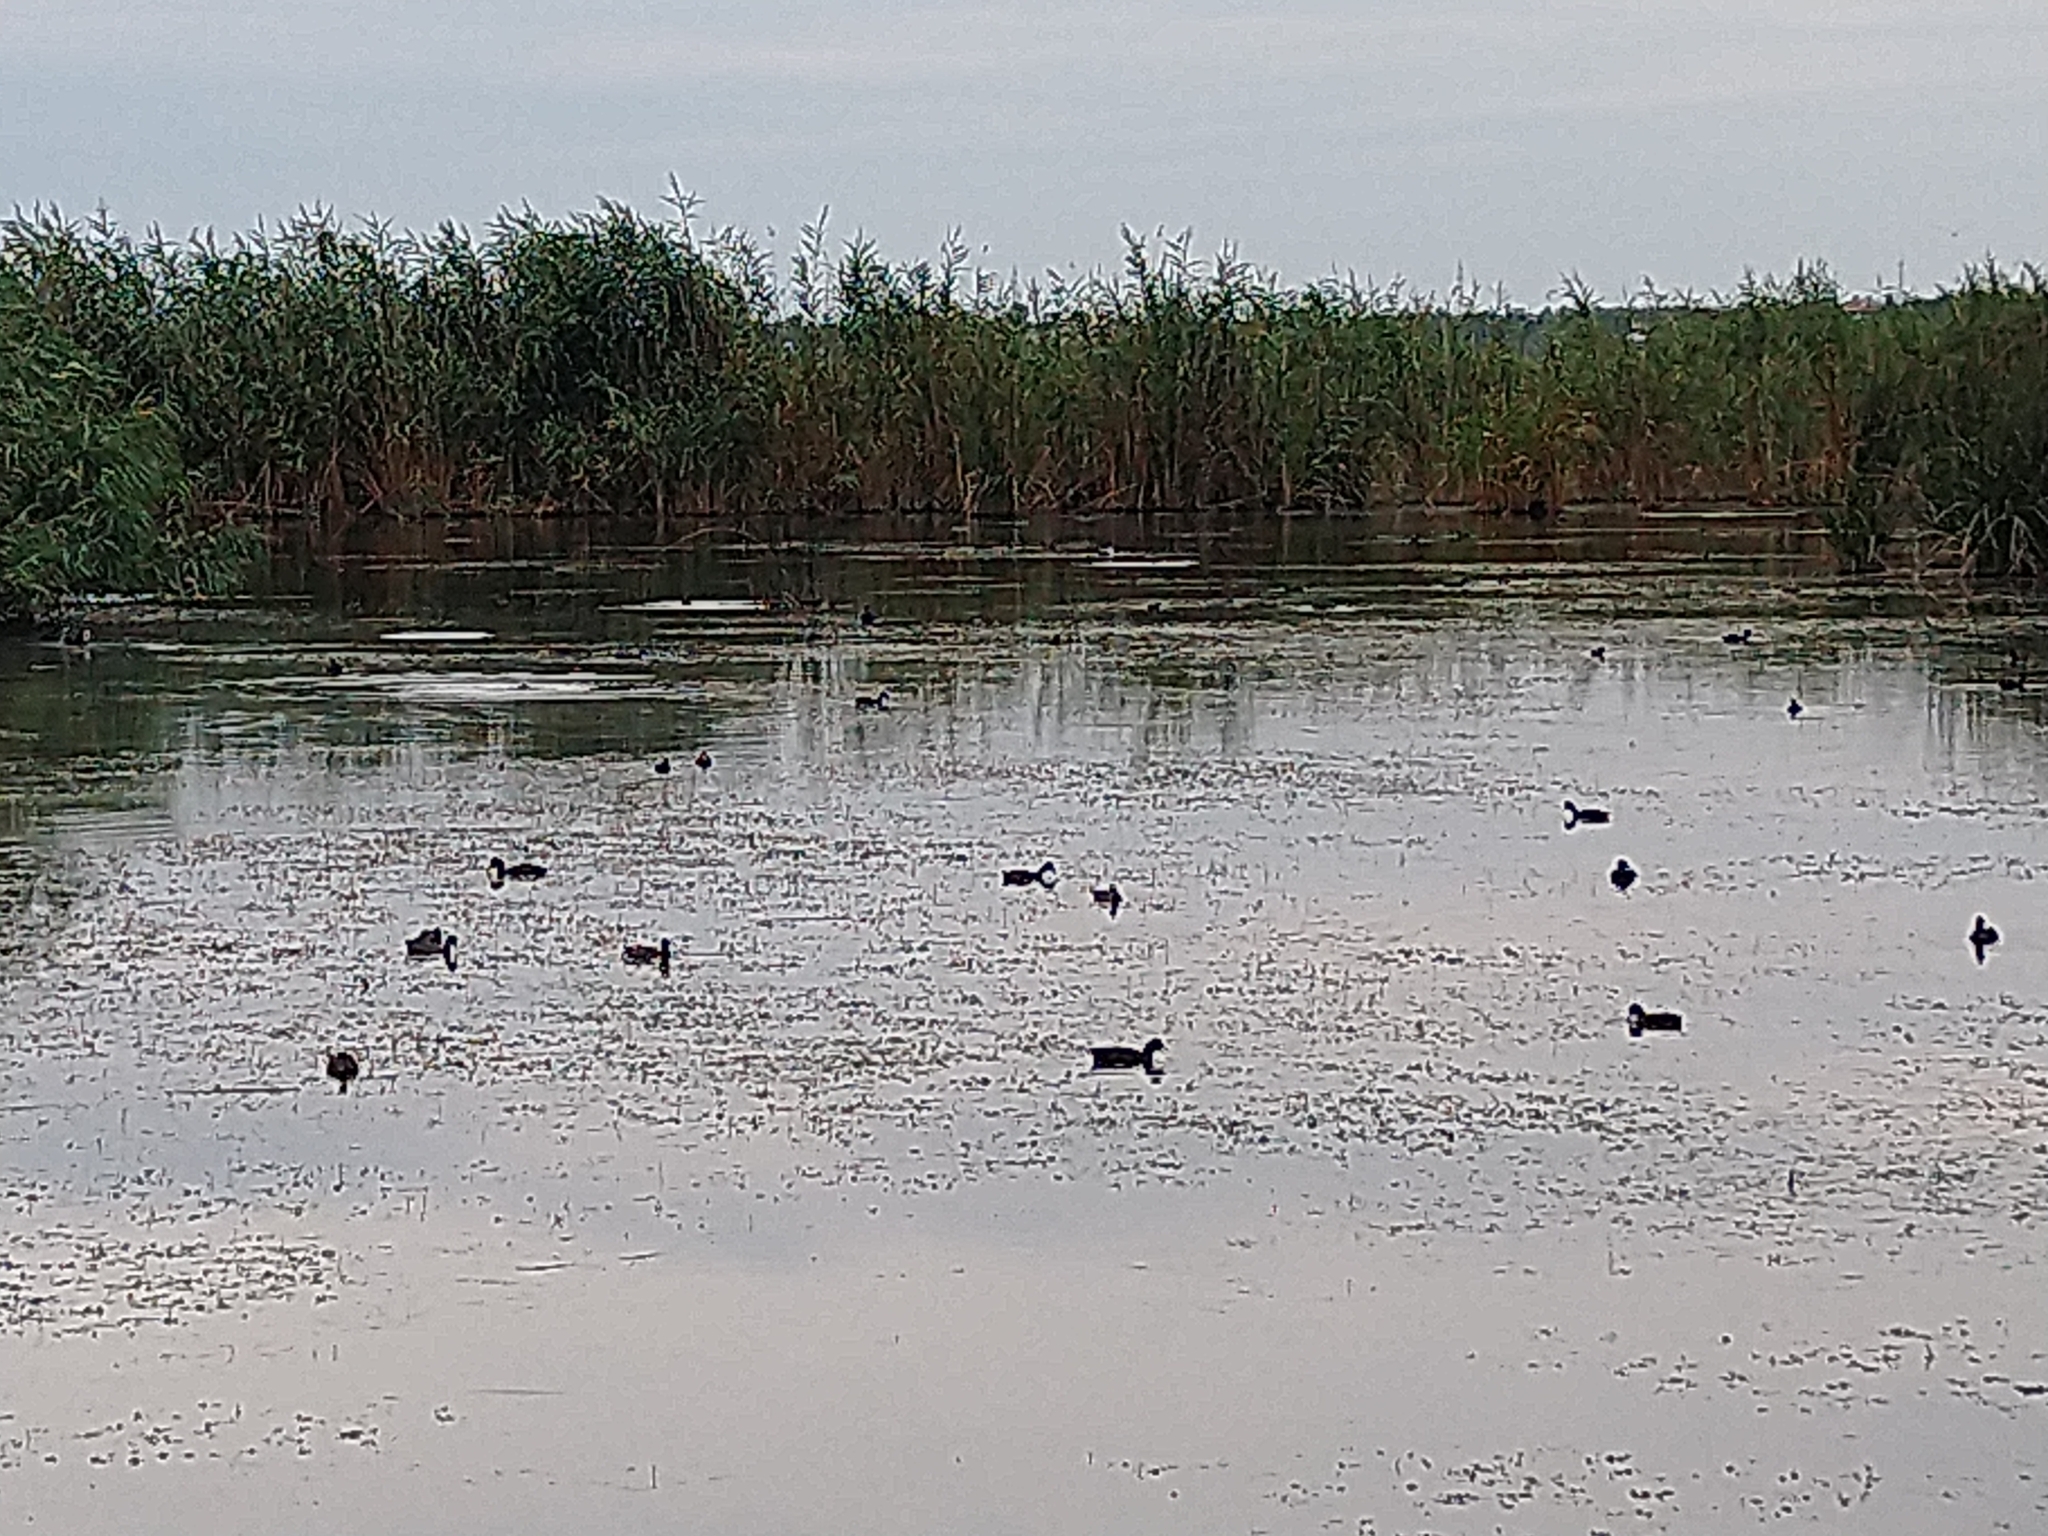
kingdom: Animalia
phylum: Chordata
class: Aves
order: Gruiformes
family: Rallidae
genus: Fulica
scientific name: Fulica atra
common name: Eurasian coot
